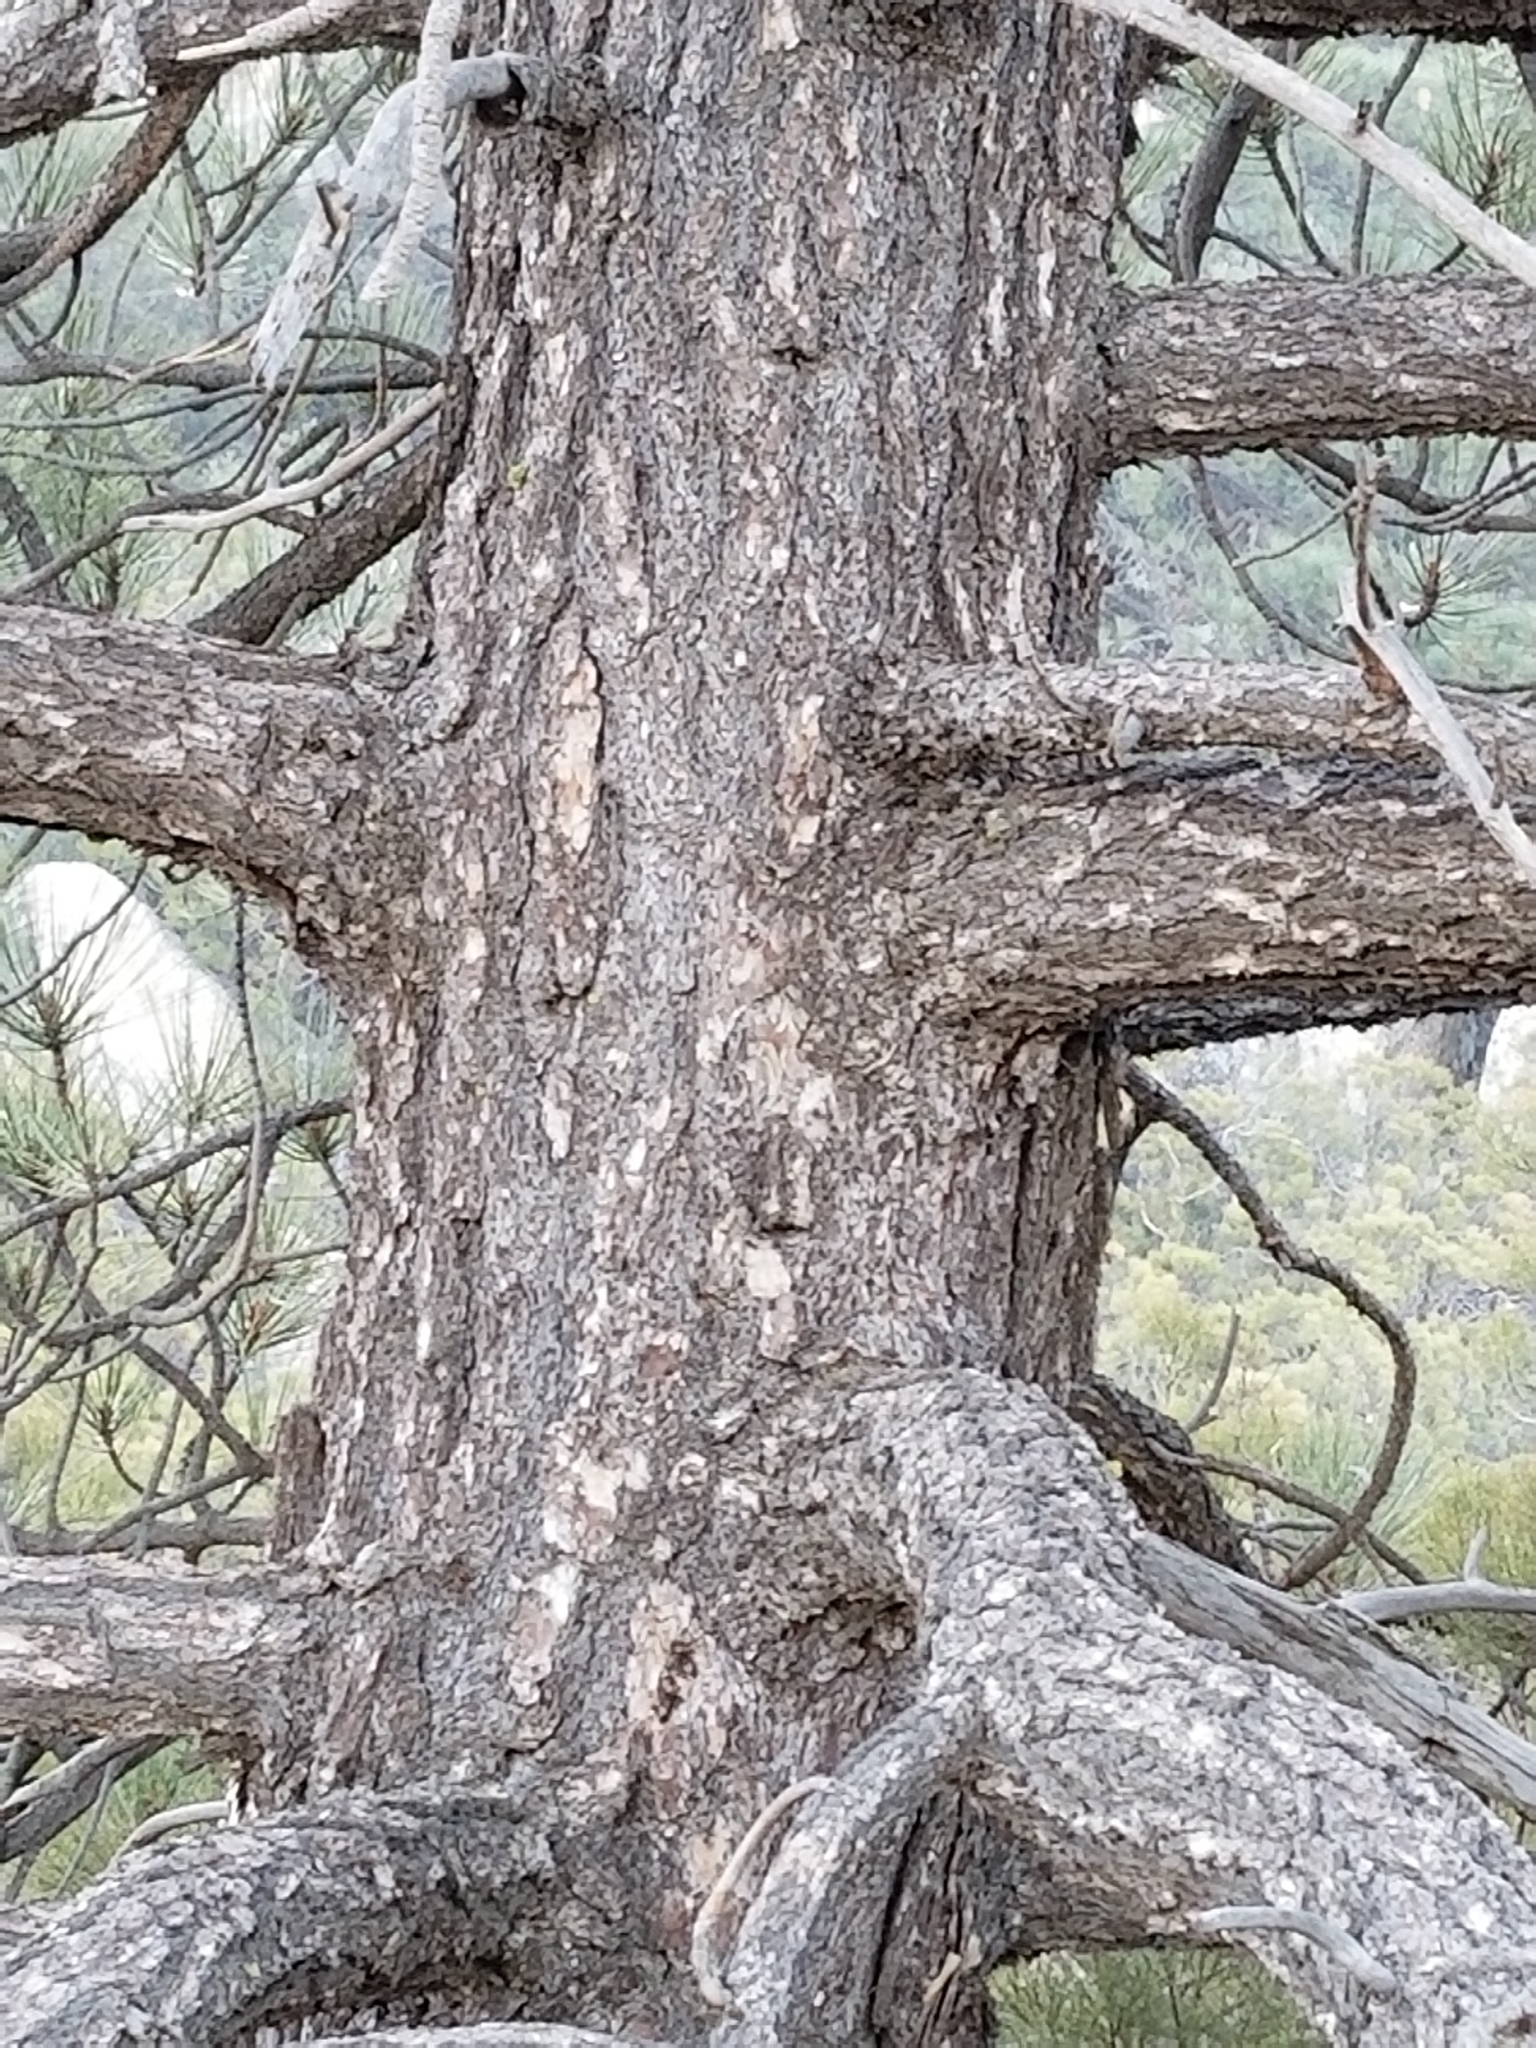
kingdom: Plantae
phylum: Tracheophyta
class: Pinopsida
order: Pinales
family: Pinaceae
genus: Pinus
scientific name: Pinus coulteri
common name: Coulter pine
